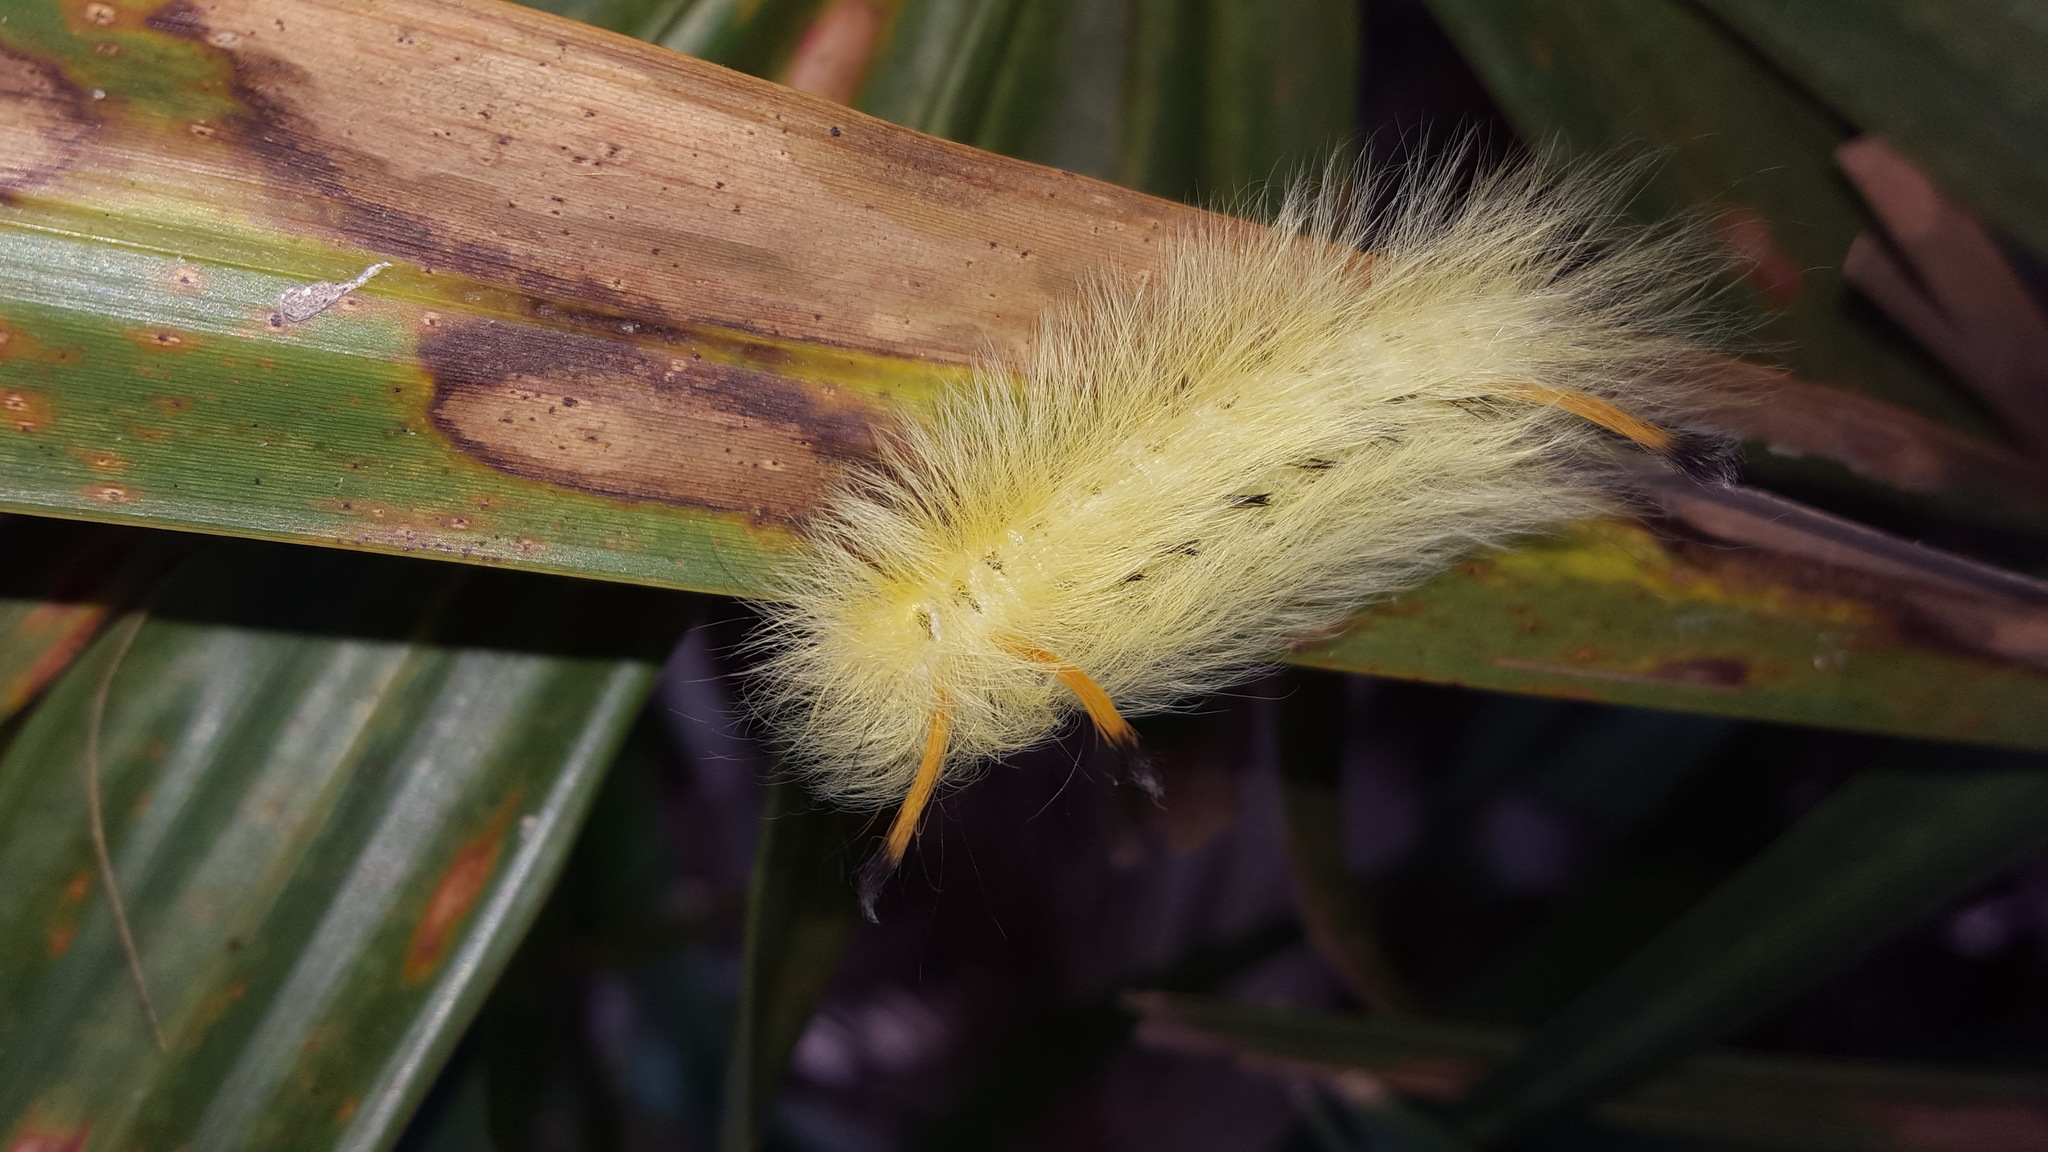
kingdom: Animalia
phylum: Arthropoda
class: Insecta
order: Lepidoptera
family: Apatelodidae
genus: Hygrochroa
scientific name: Hygrochroa Apatelodes torrefacta
